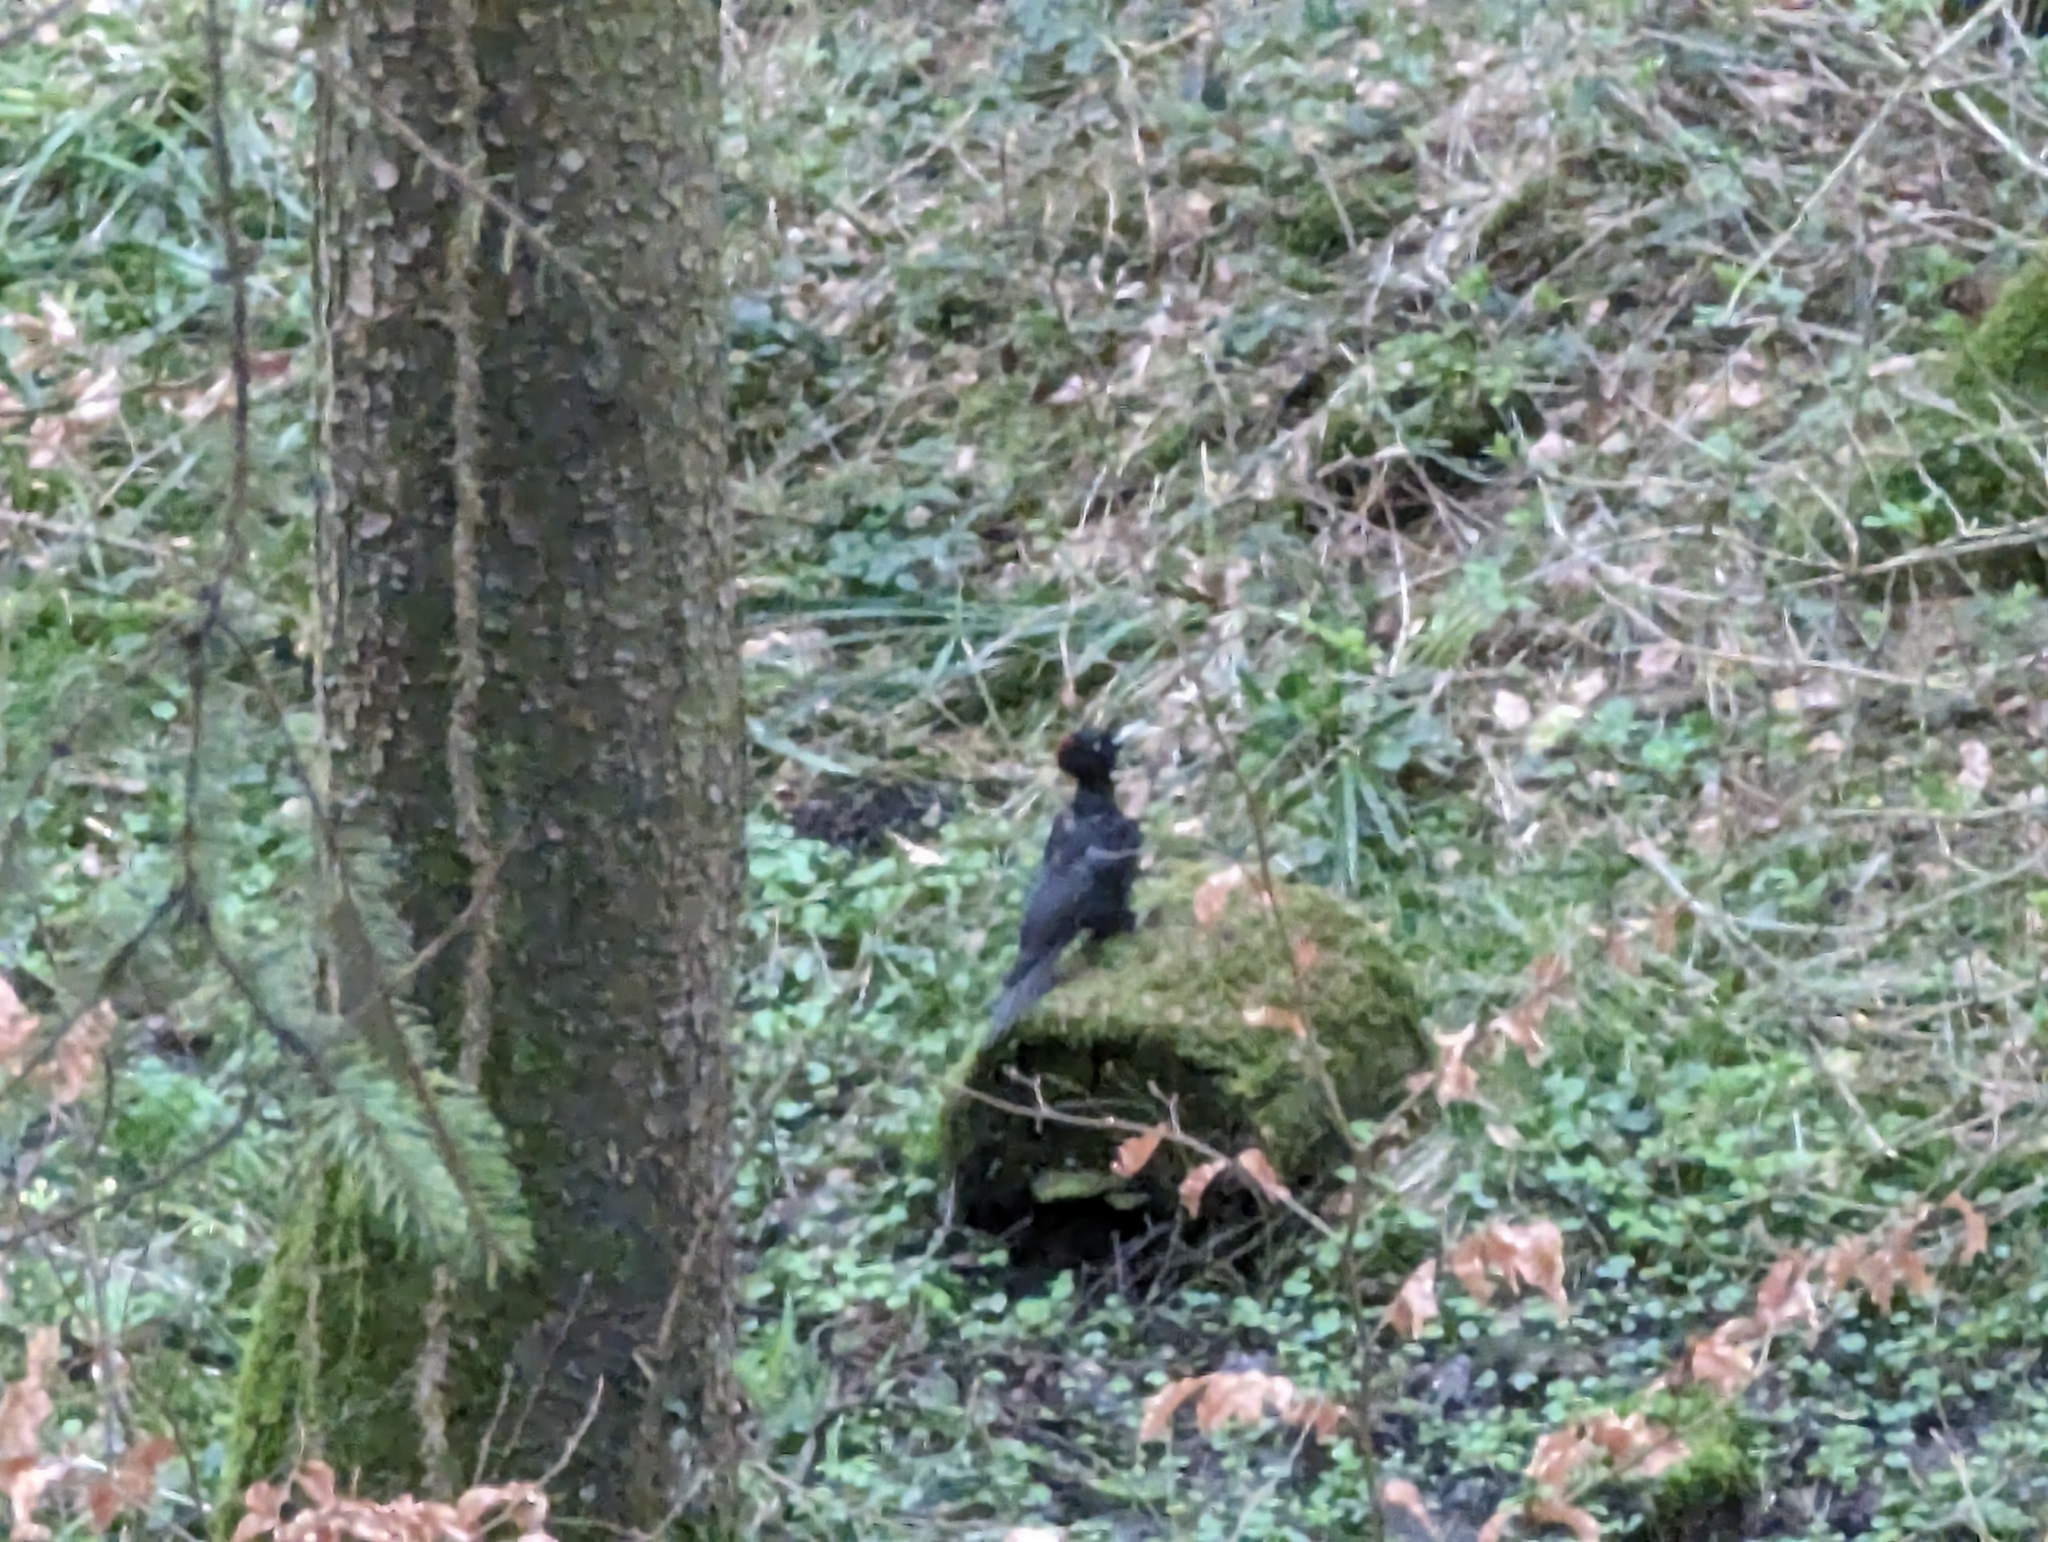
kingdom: Animalia
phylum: Chordata
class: Aves
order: Piciformes
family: Picidae
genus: Dryocopus
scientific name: Dryocopus martius
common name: Black woodpecker
